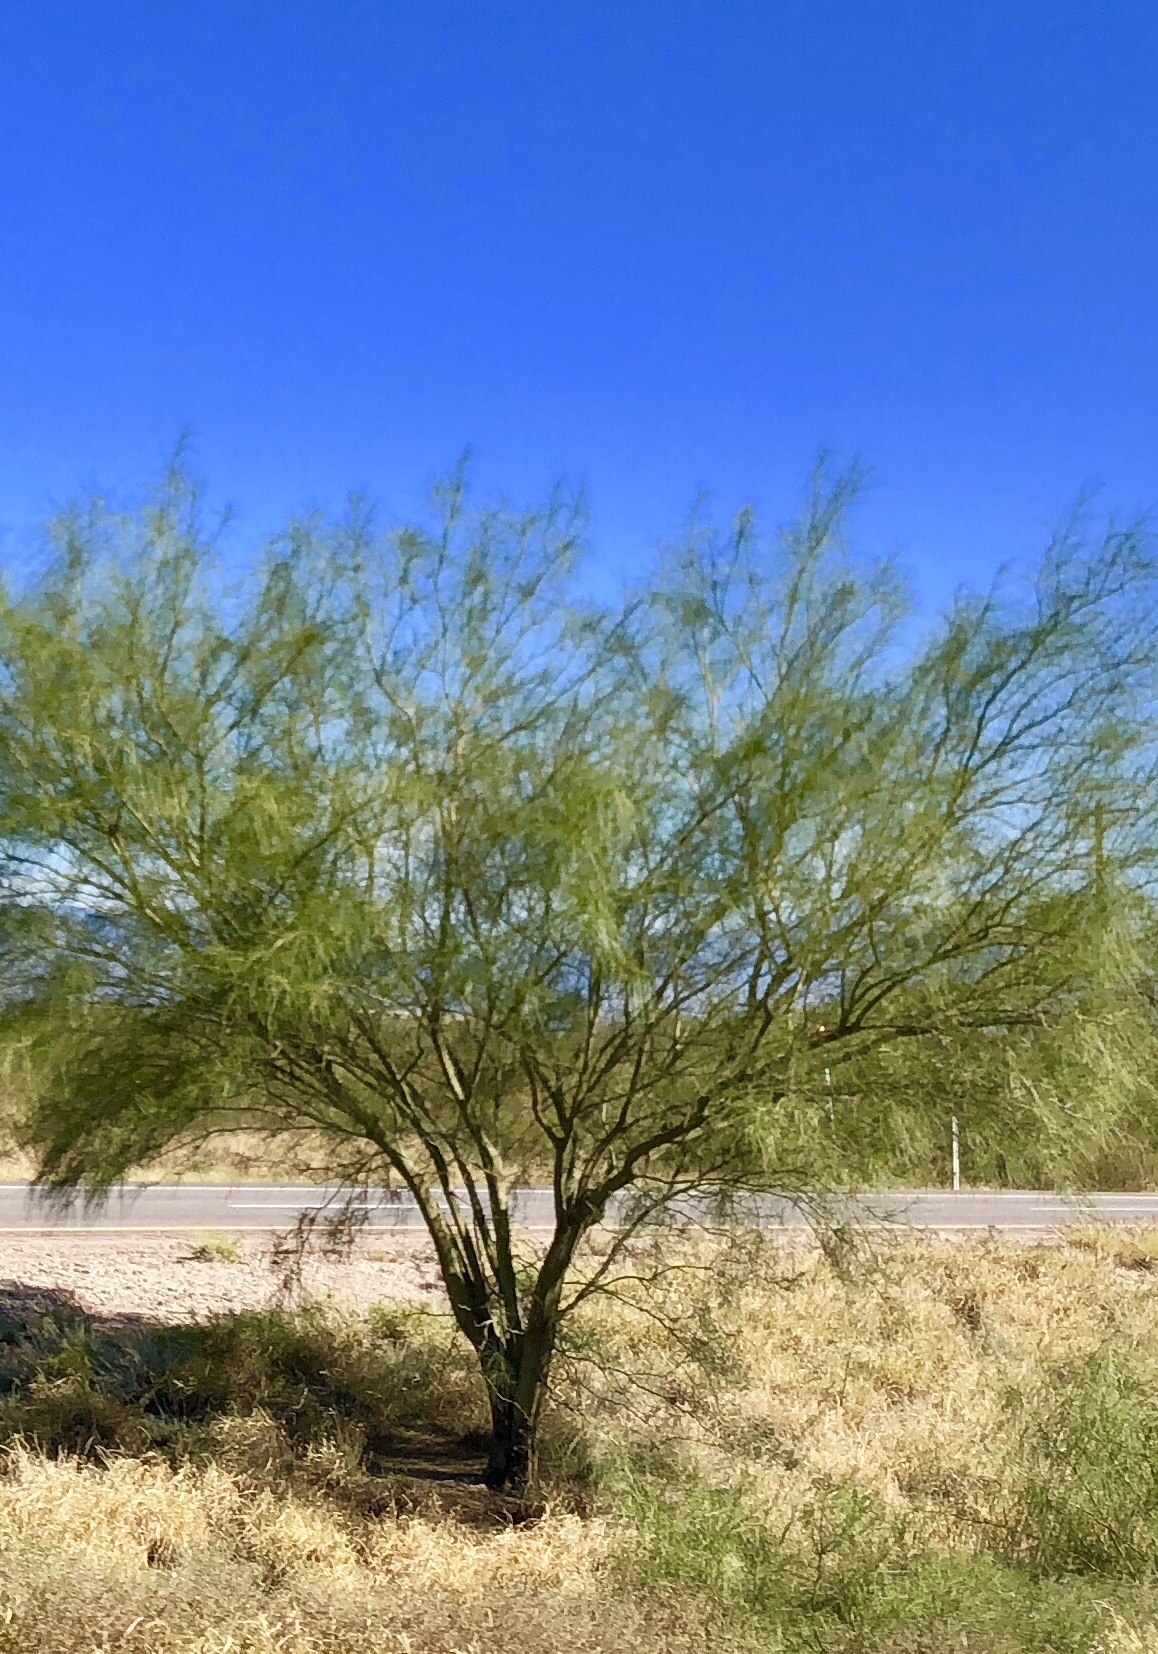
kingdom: Plantae
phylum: Tracheophyta
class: Magnoliopsida
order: Fabales
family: Fabaceae
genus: Parkinsonia
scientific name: Parkinsonia aculeata
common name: Jerusalem thorn
